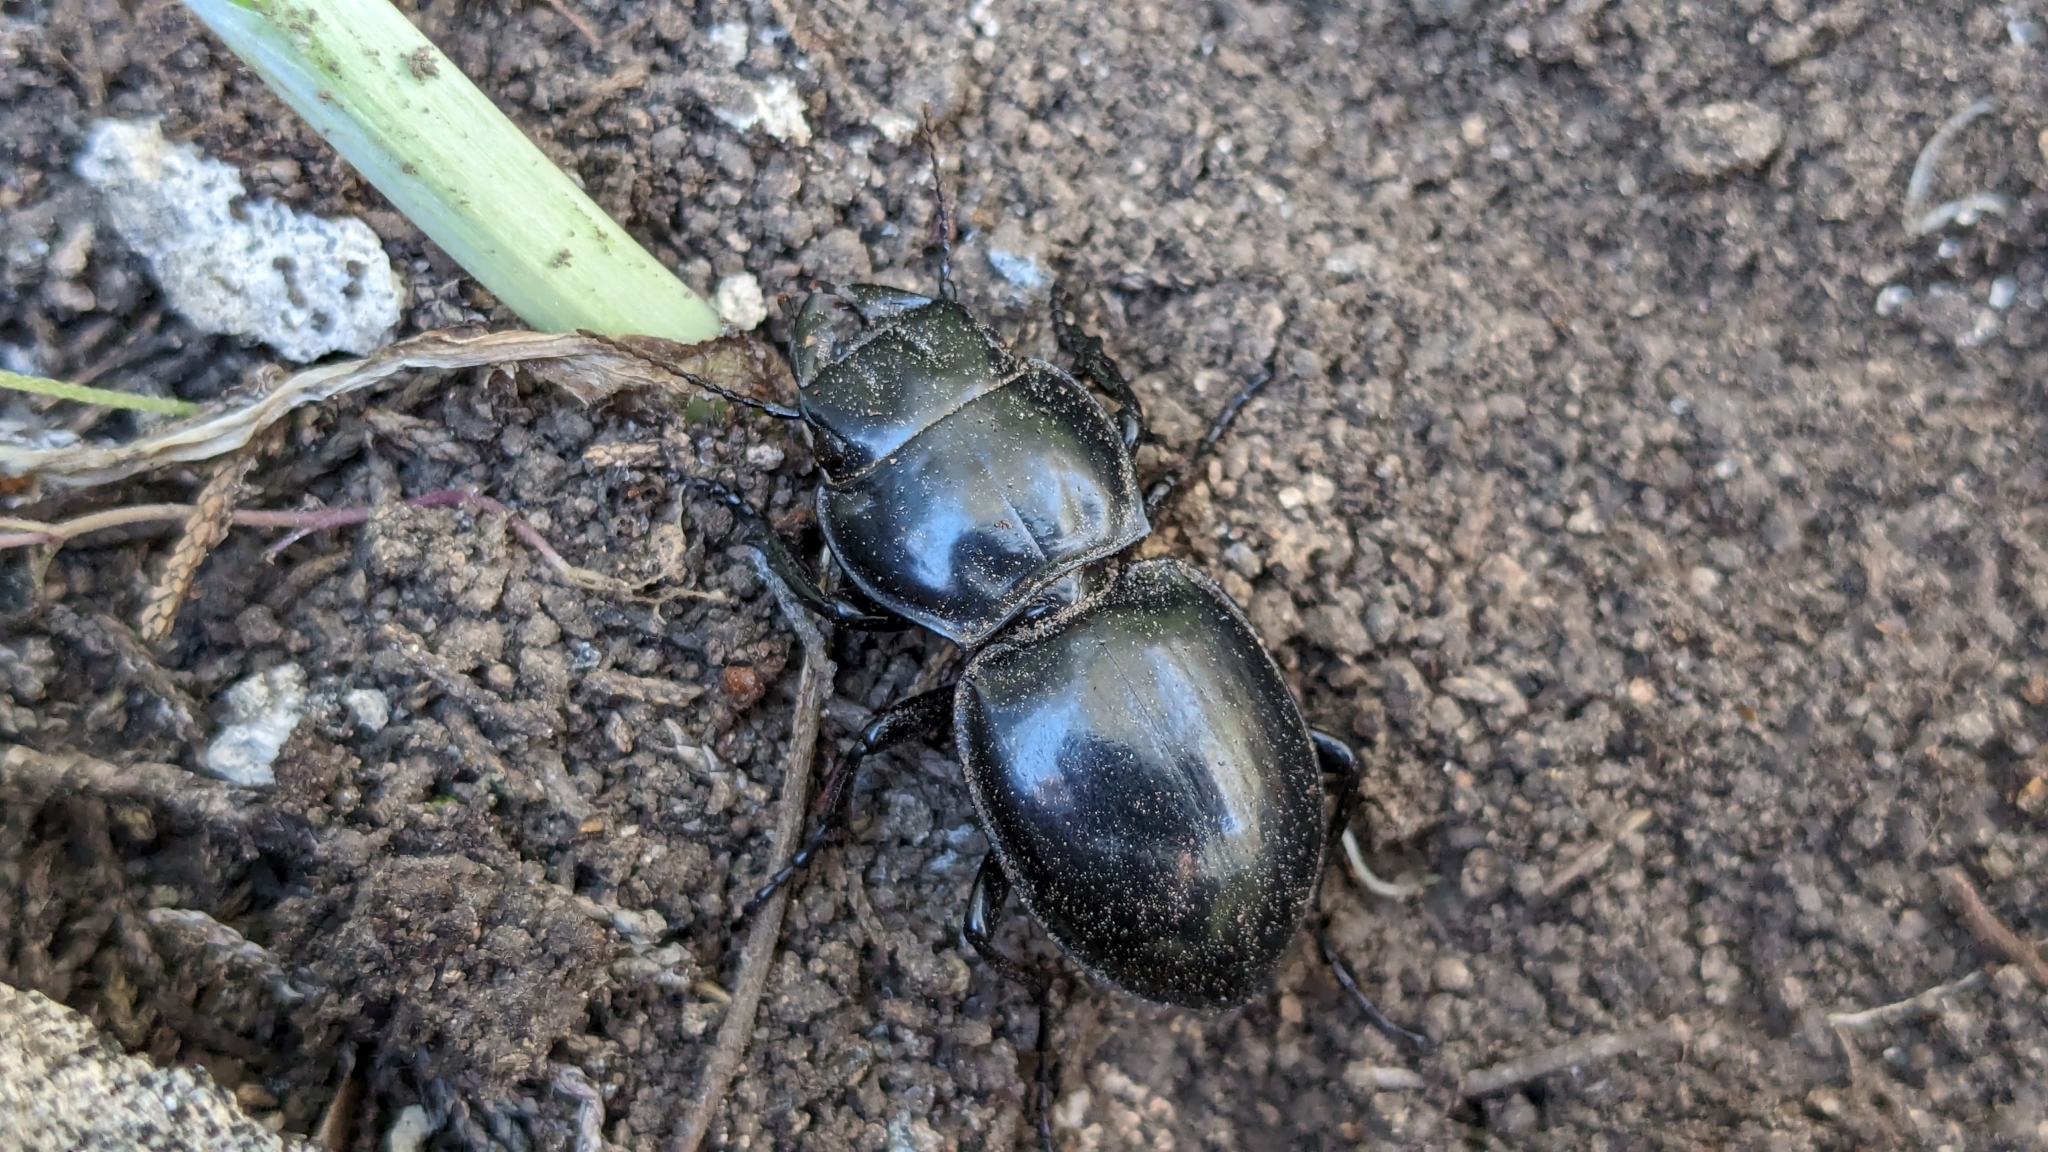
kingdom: Animalia
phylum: Arthropoda
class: Insecta
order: Coleoptera
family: Carabidae
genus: Pasimachus
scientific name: Pasimachus californicus
